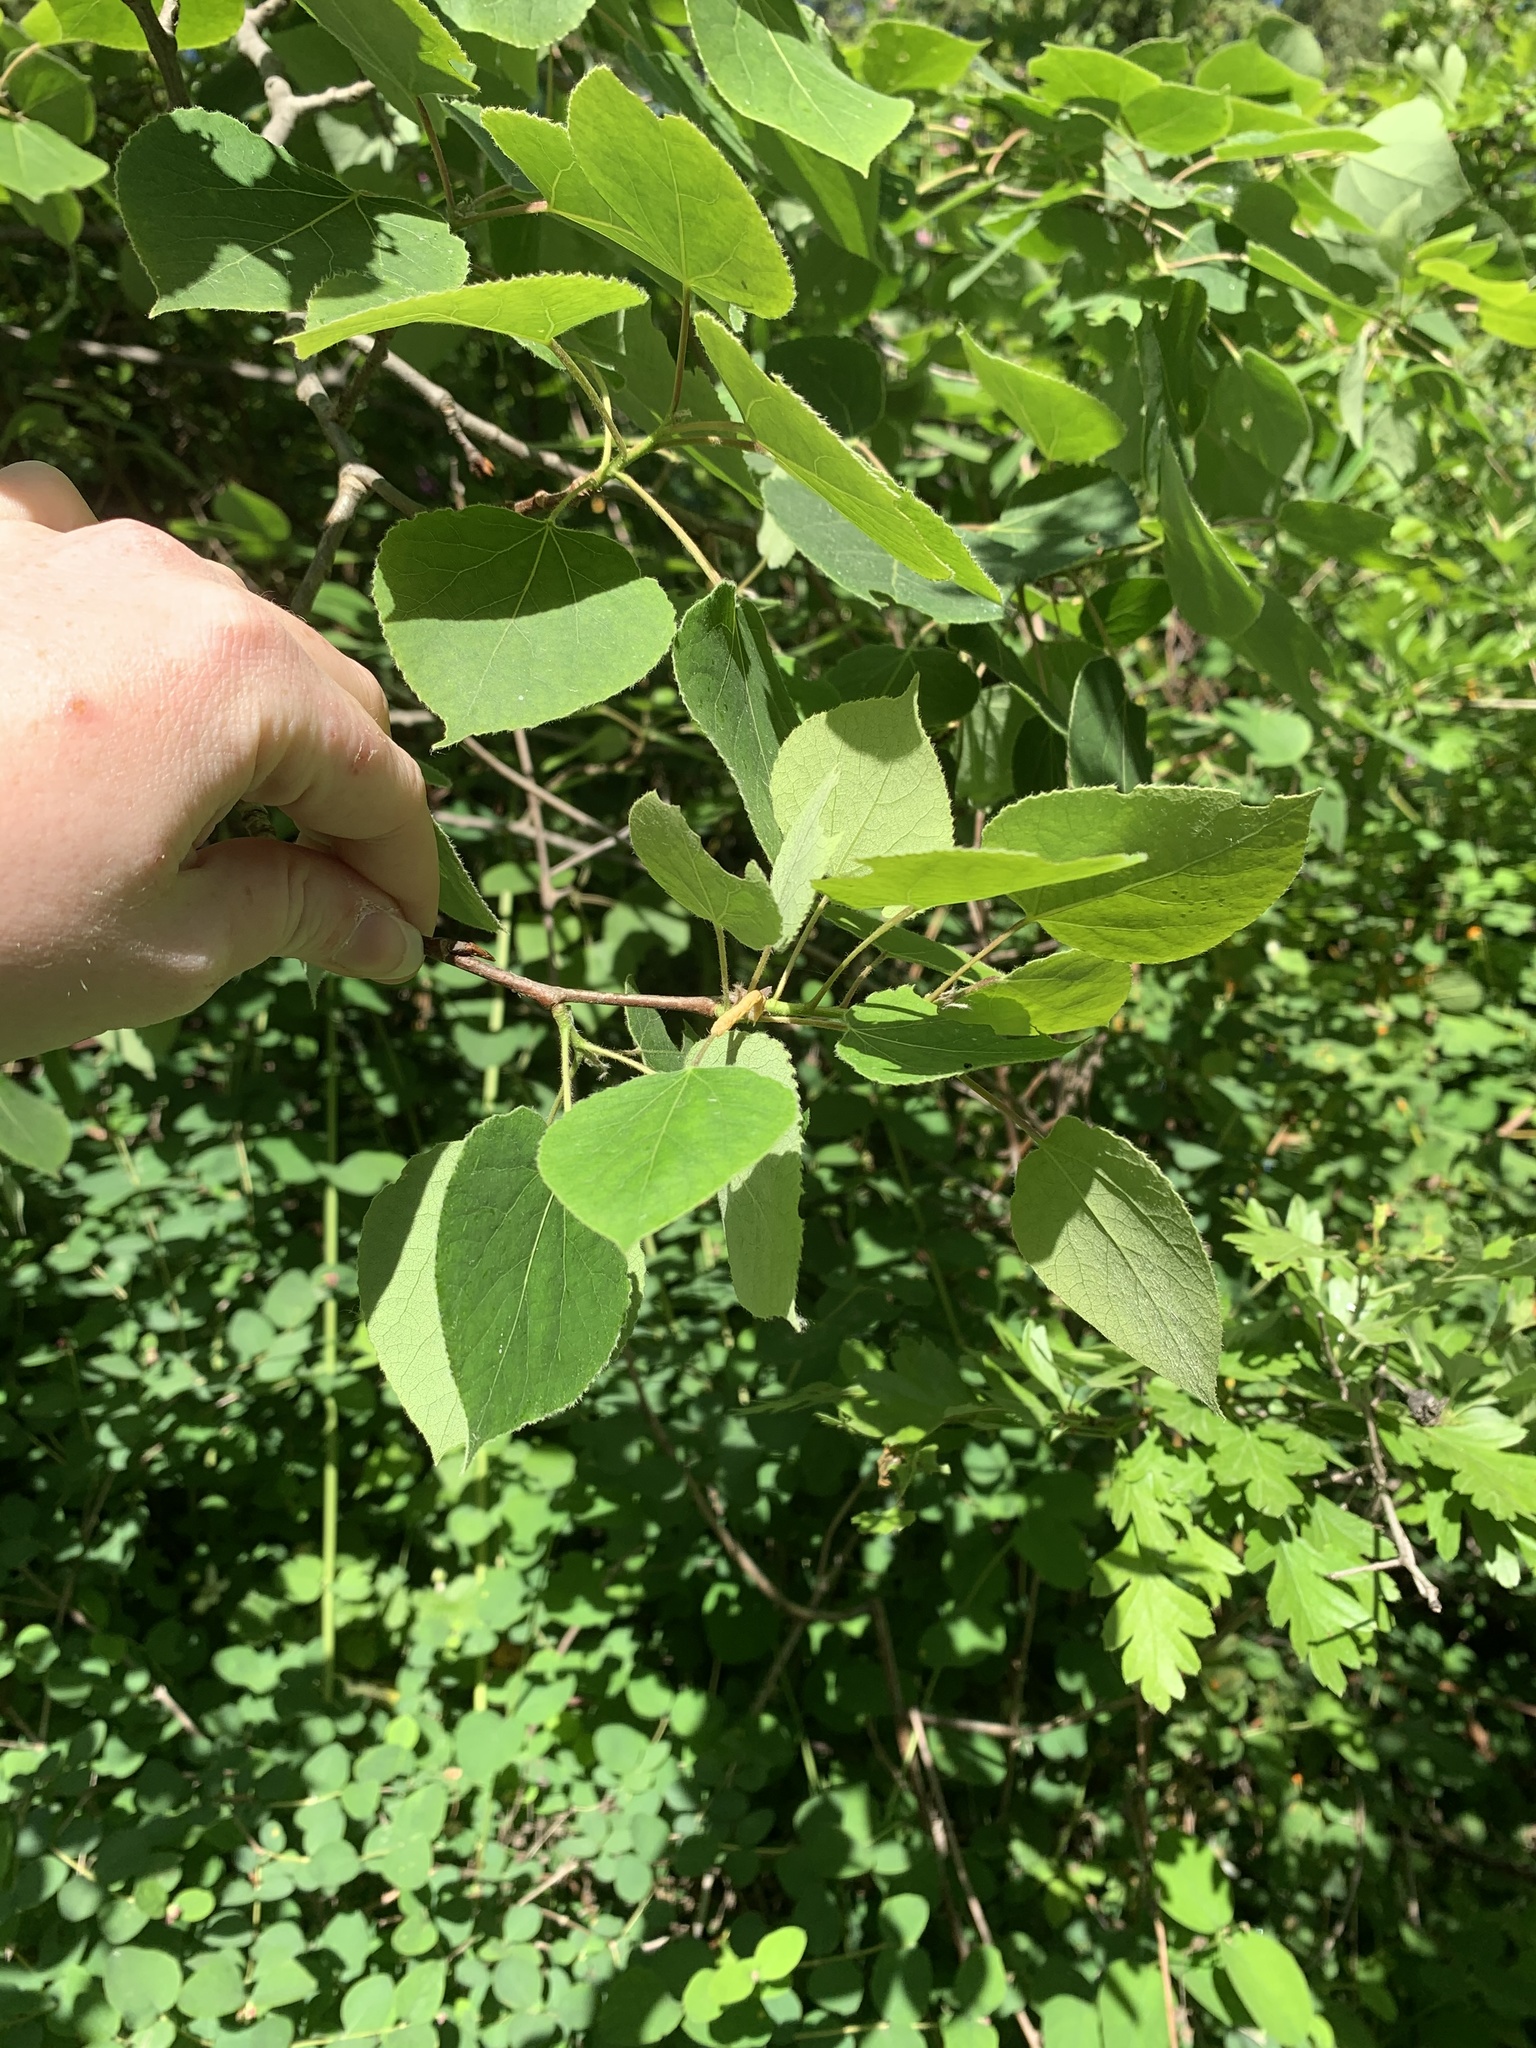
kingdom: Plantae
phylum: Tracheophyta
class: Magnoliopsida
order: Malpighiales
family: Salicaceae
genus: Populus
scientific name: Populus tremuloides
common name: Quaking aspen
